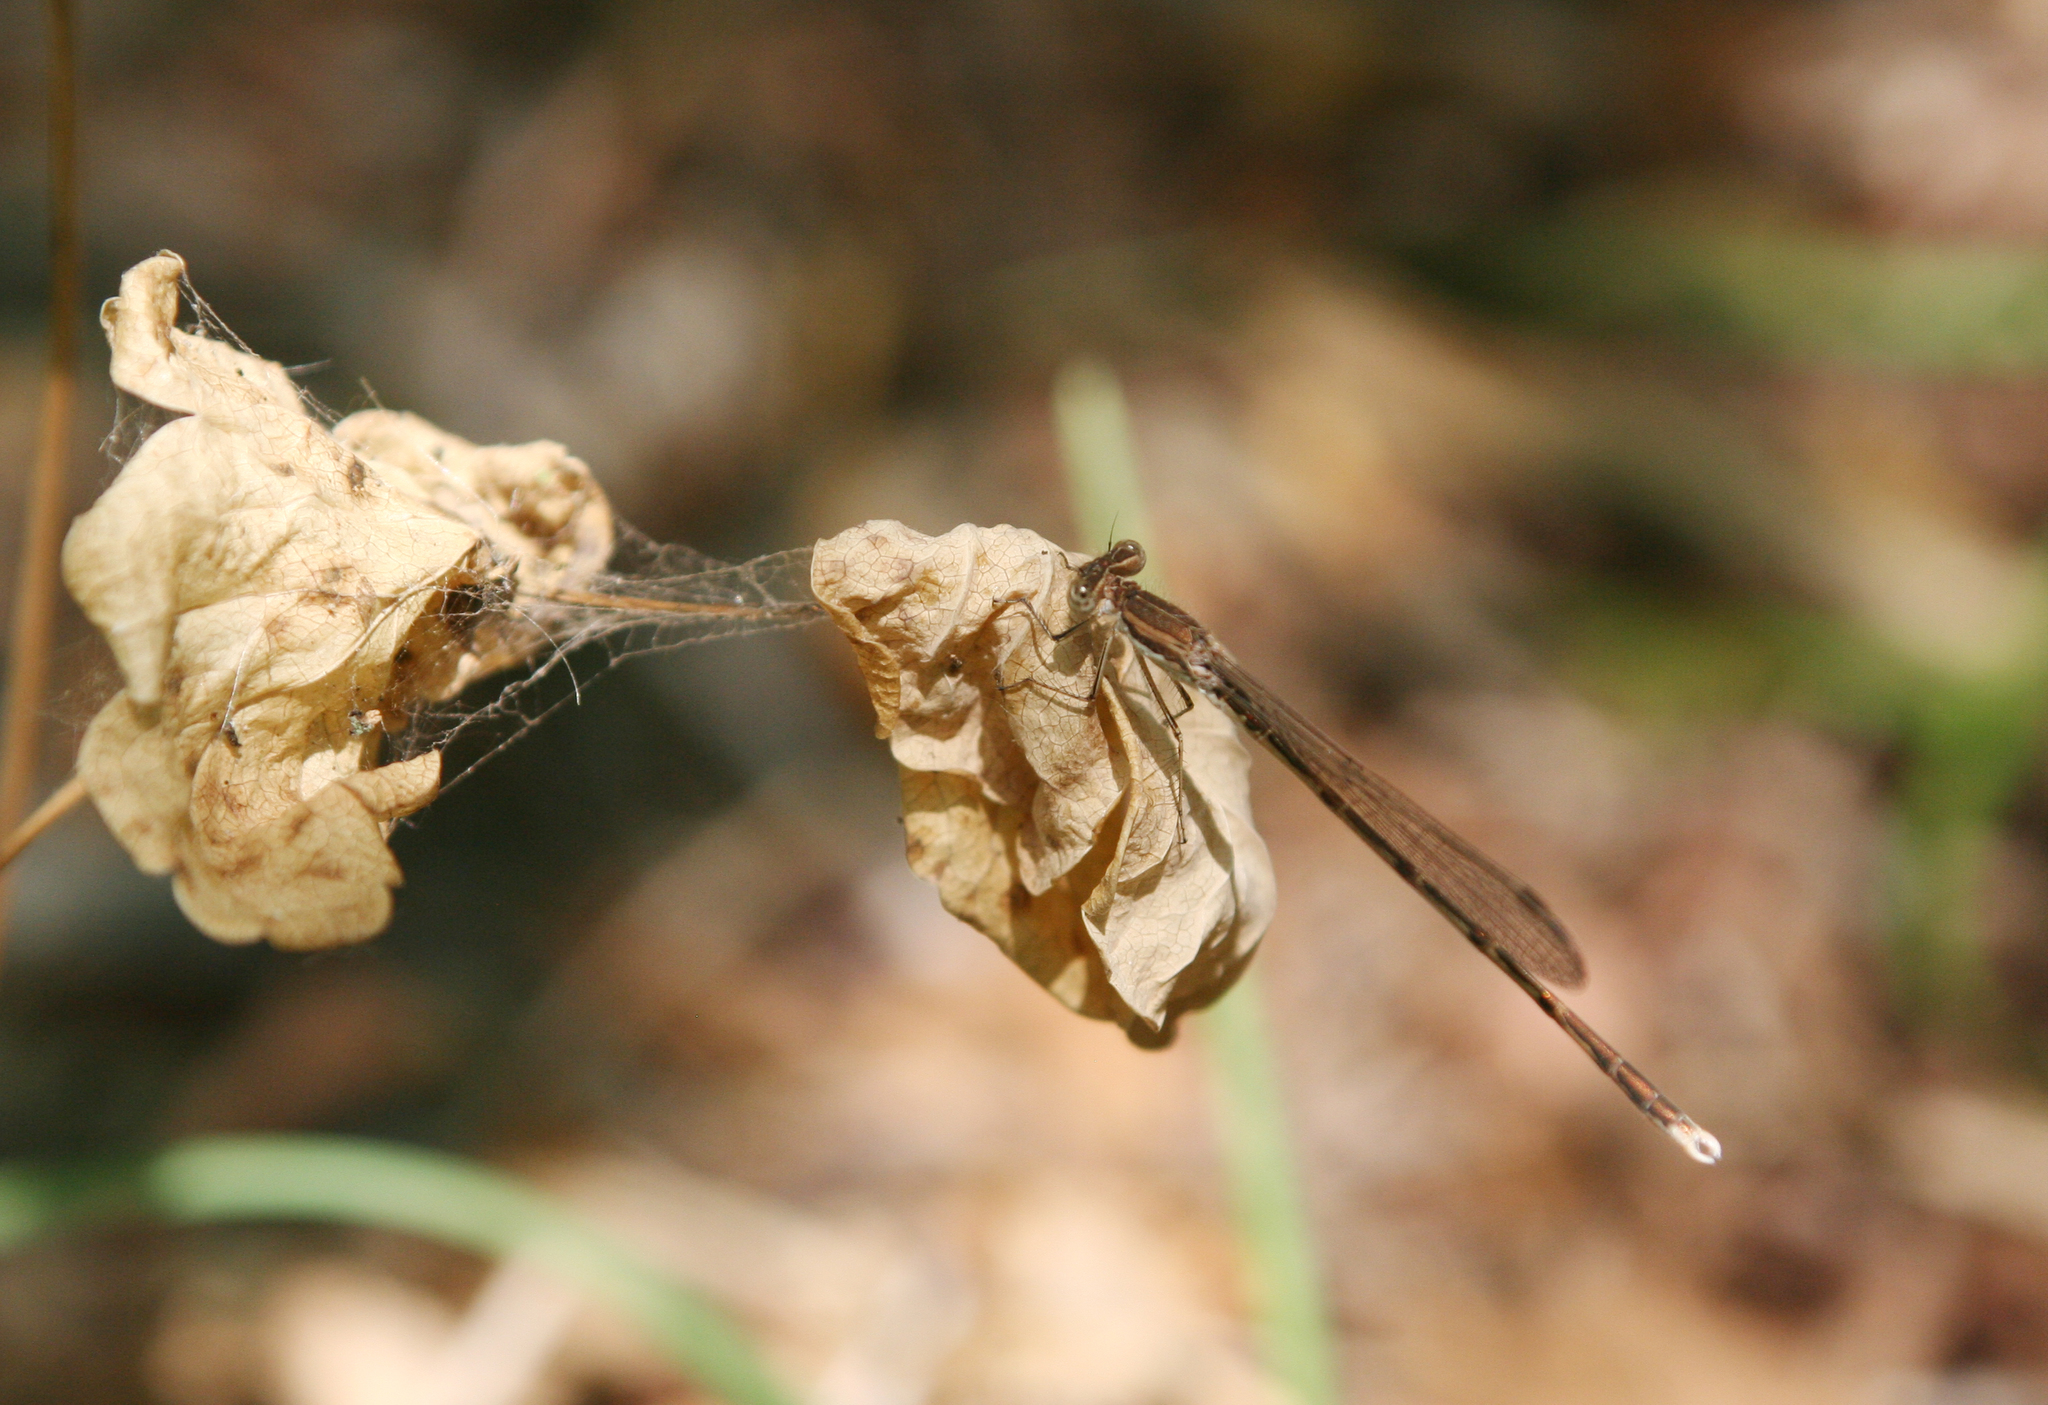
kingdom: Animalia
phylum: Arthropoda
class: Insecta
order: Odonata
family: Lestidae
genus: Sympecma
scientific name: Sympecma fusca
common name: Common winter damsel
